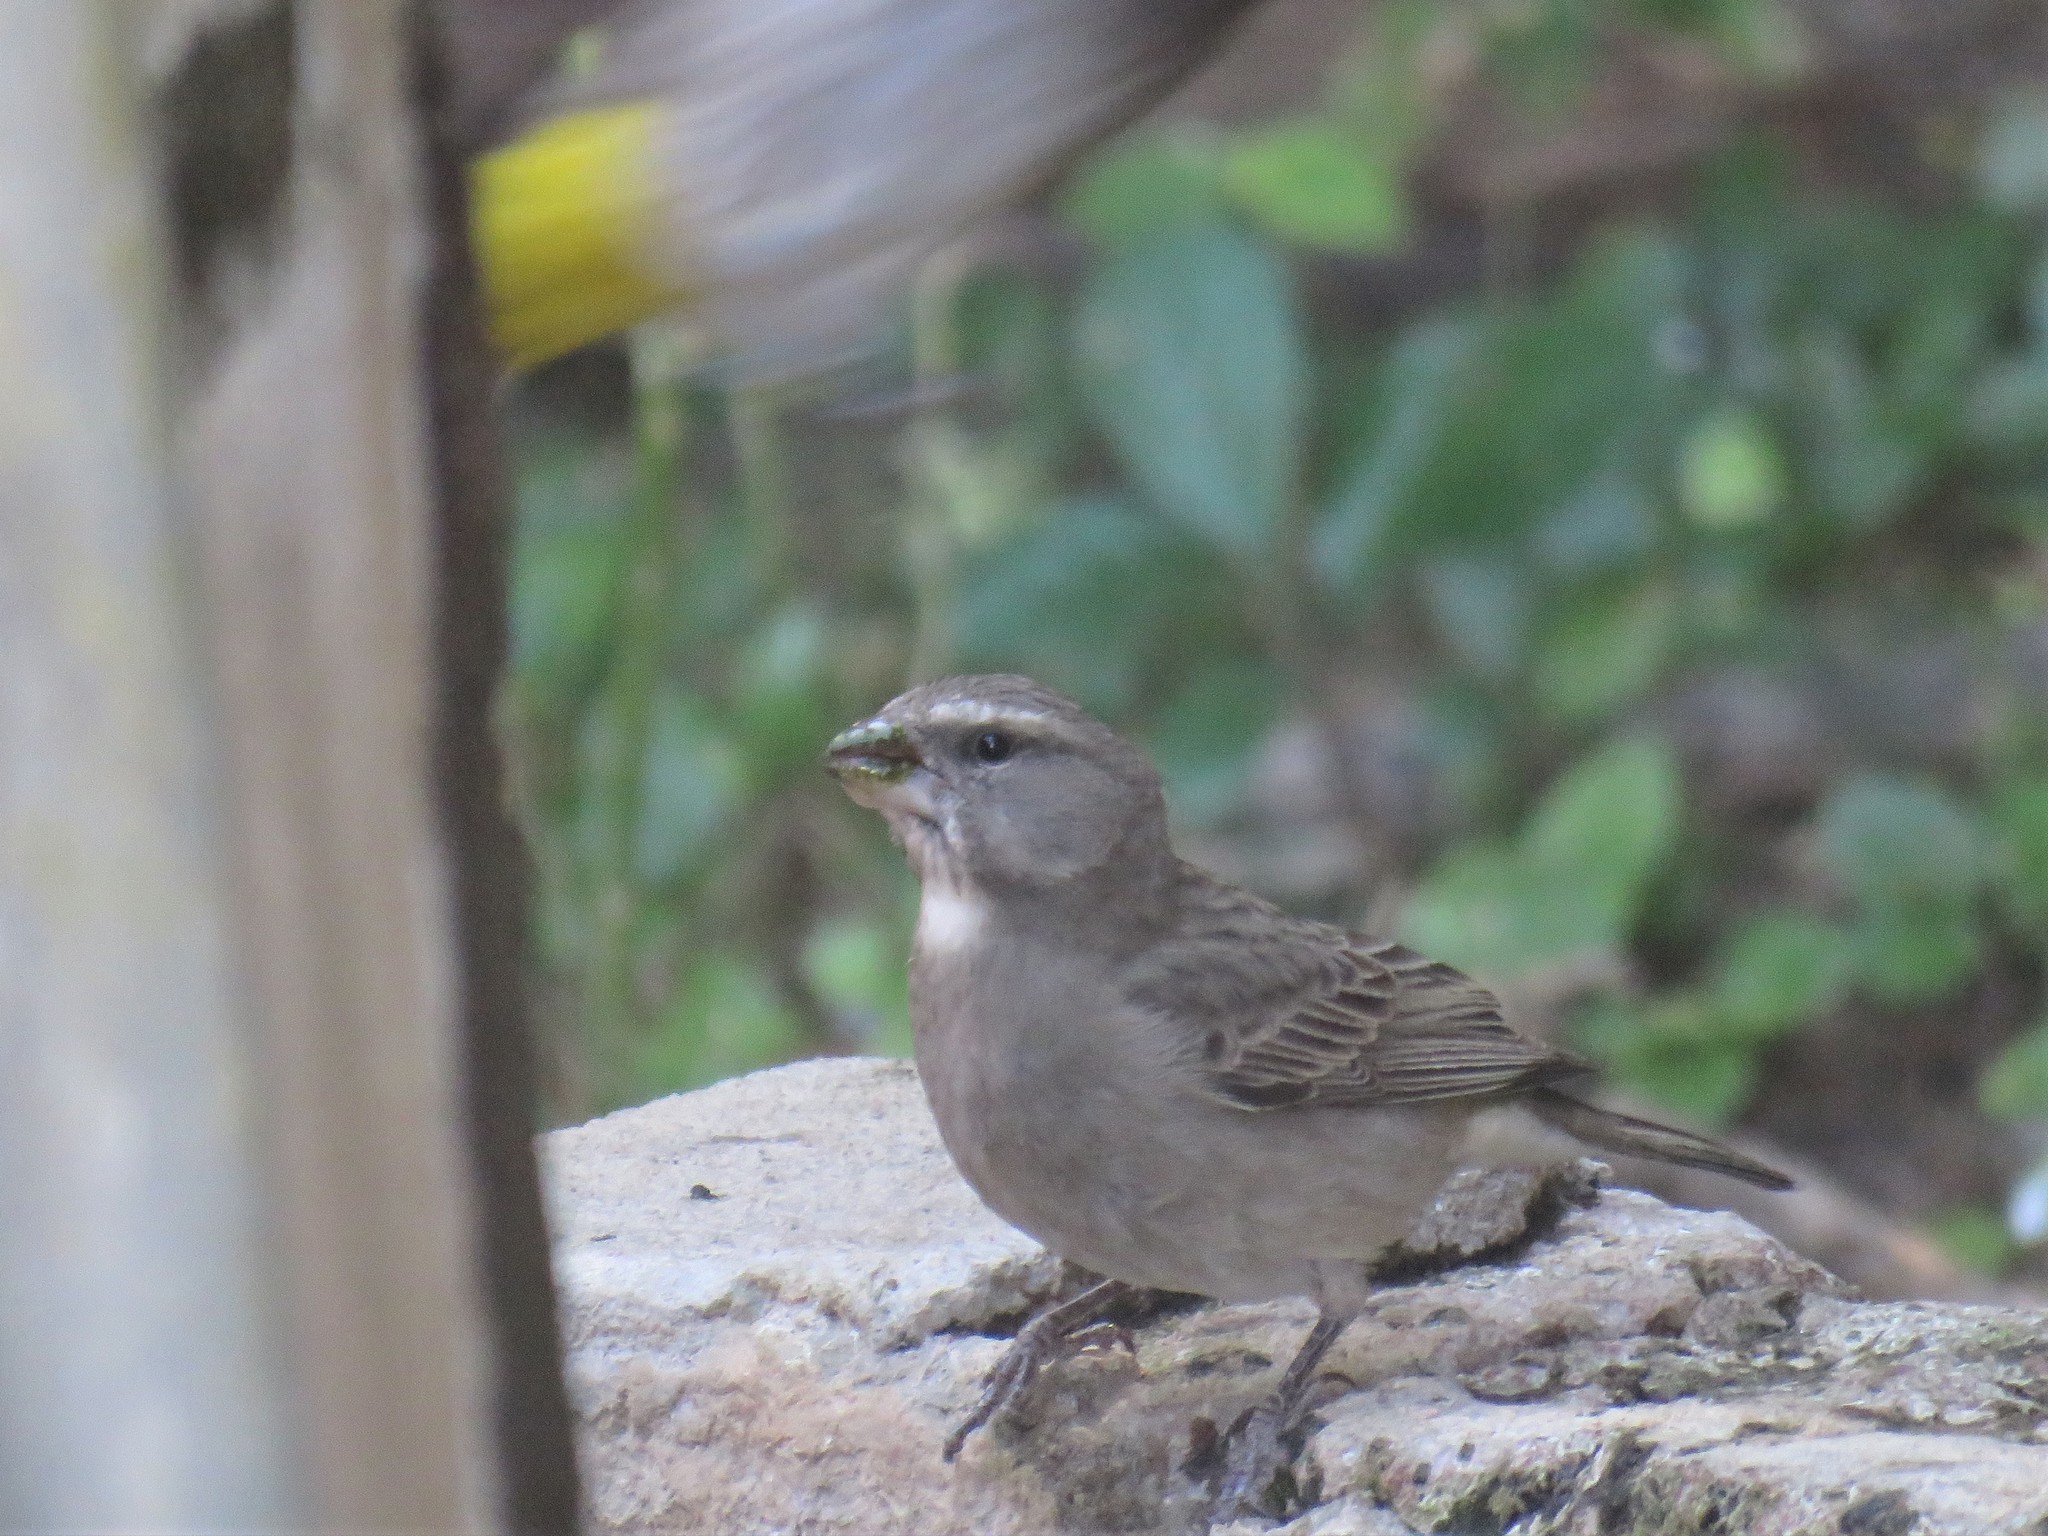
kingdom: Animalia
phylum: Chordata
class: Aves
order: Passeriformes
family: Fringillidae
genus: Crithagra
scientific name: Crithagra albogularis
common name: White-throated canary
